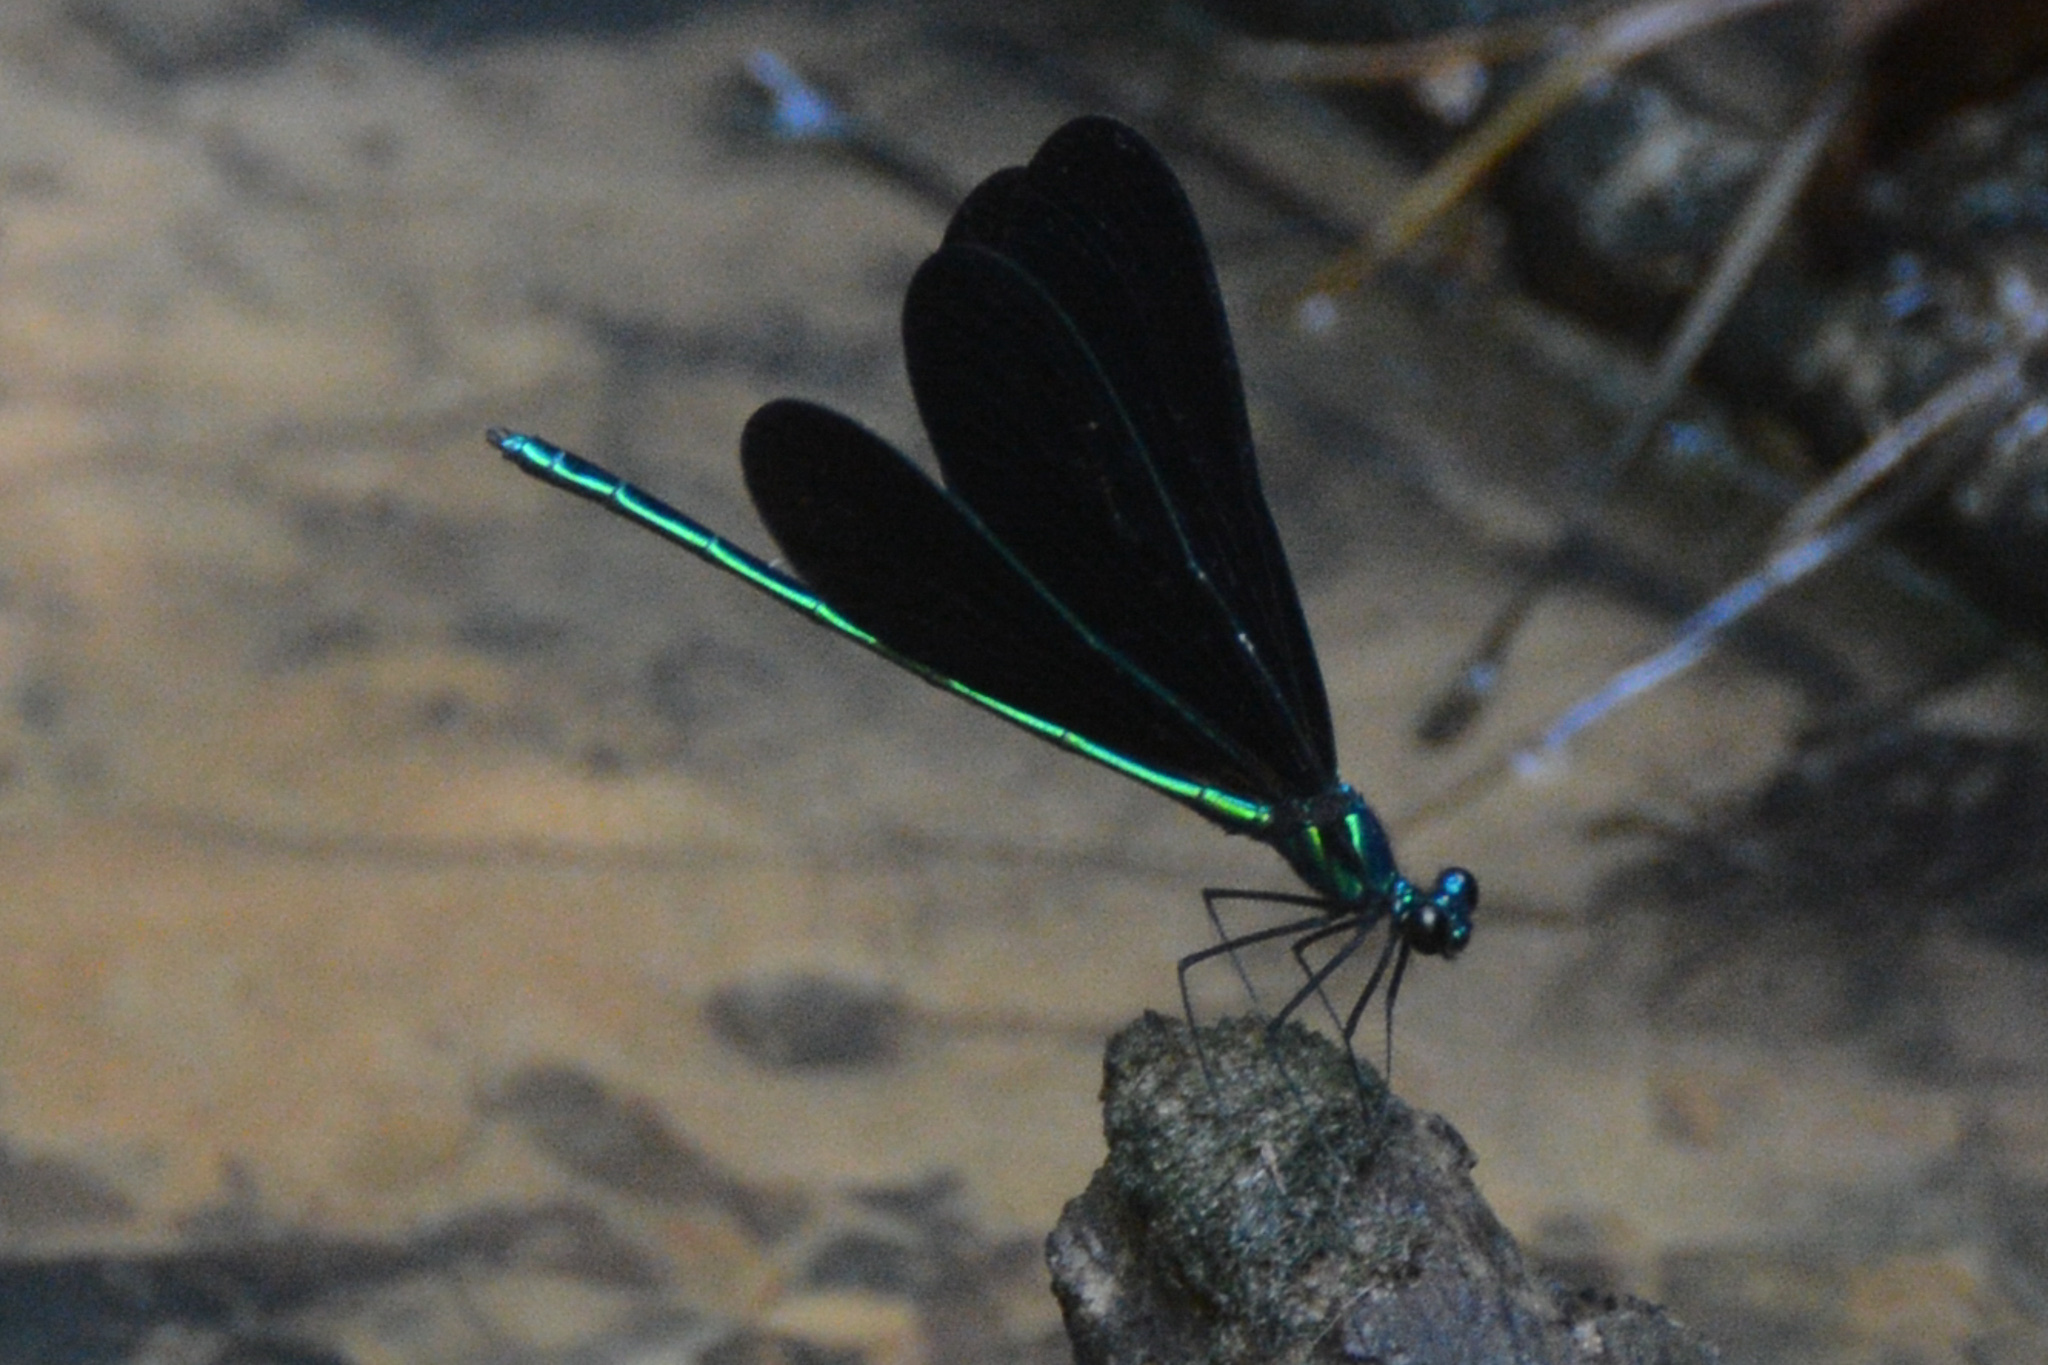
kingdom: Animalia
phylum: Arthropoda
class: Insecta
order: Odonata
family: Calopterygidae
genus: Calopteryx
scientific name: Calopteryx maculata
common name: Ebony jewelwing
